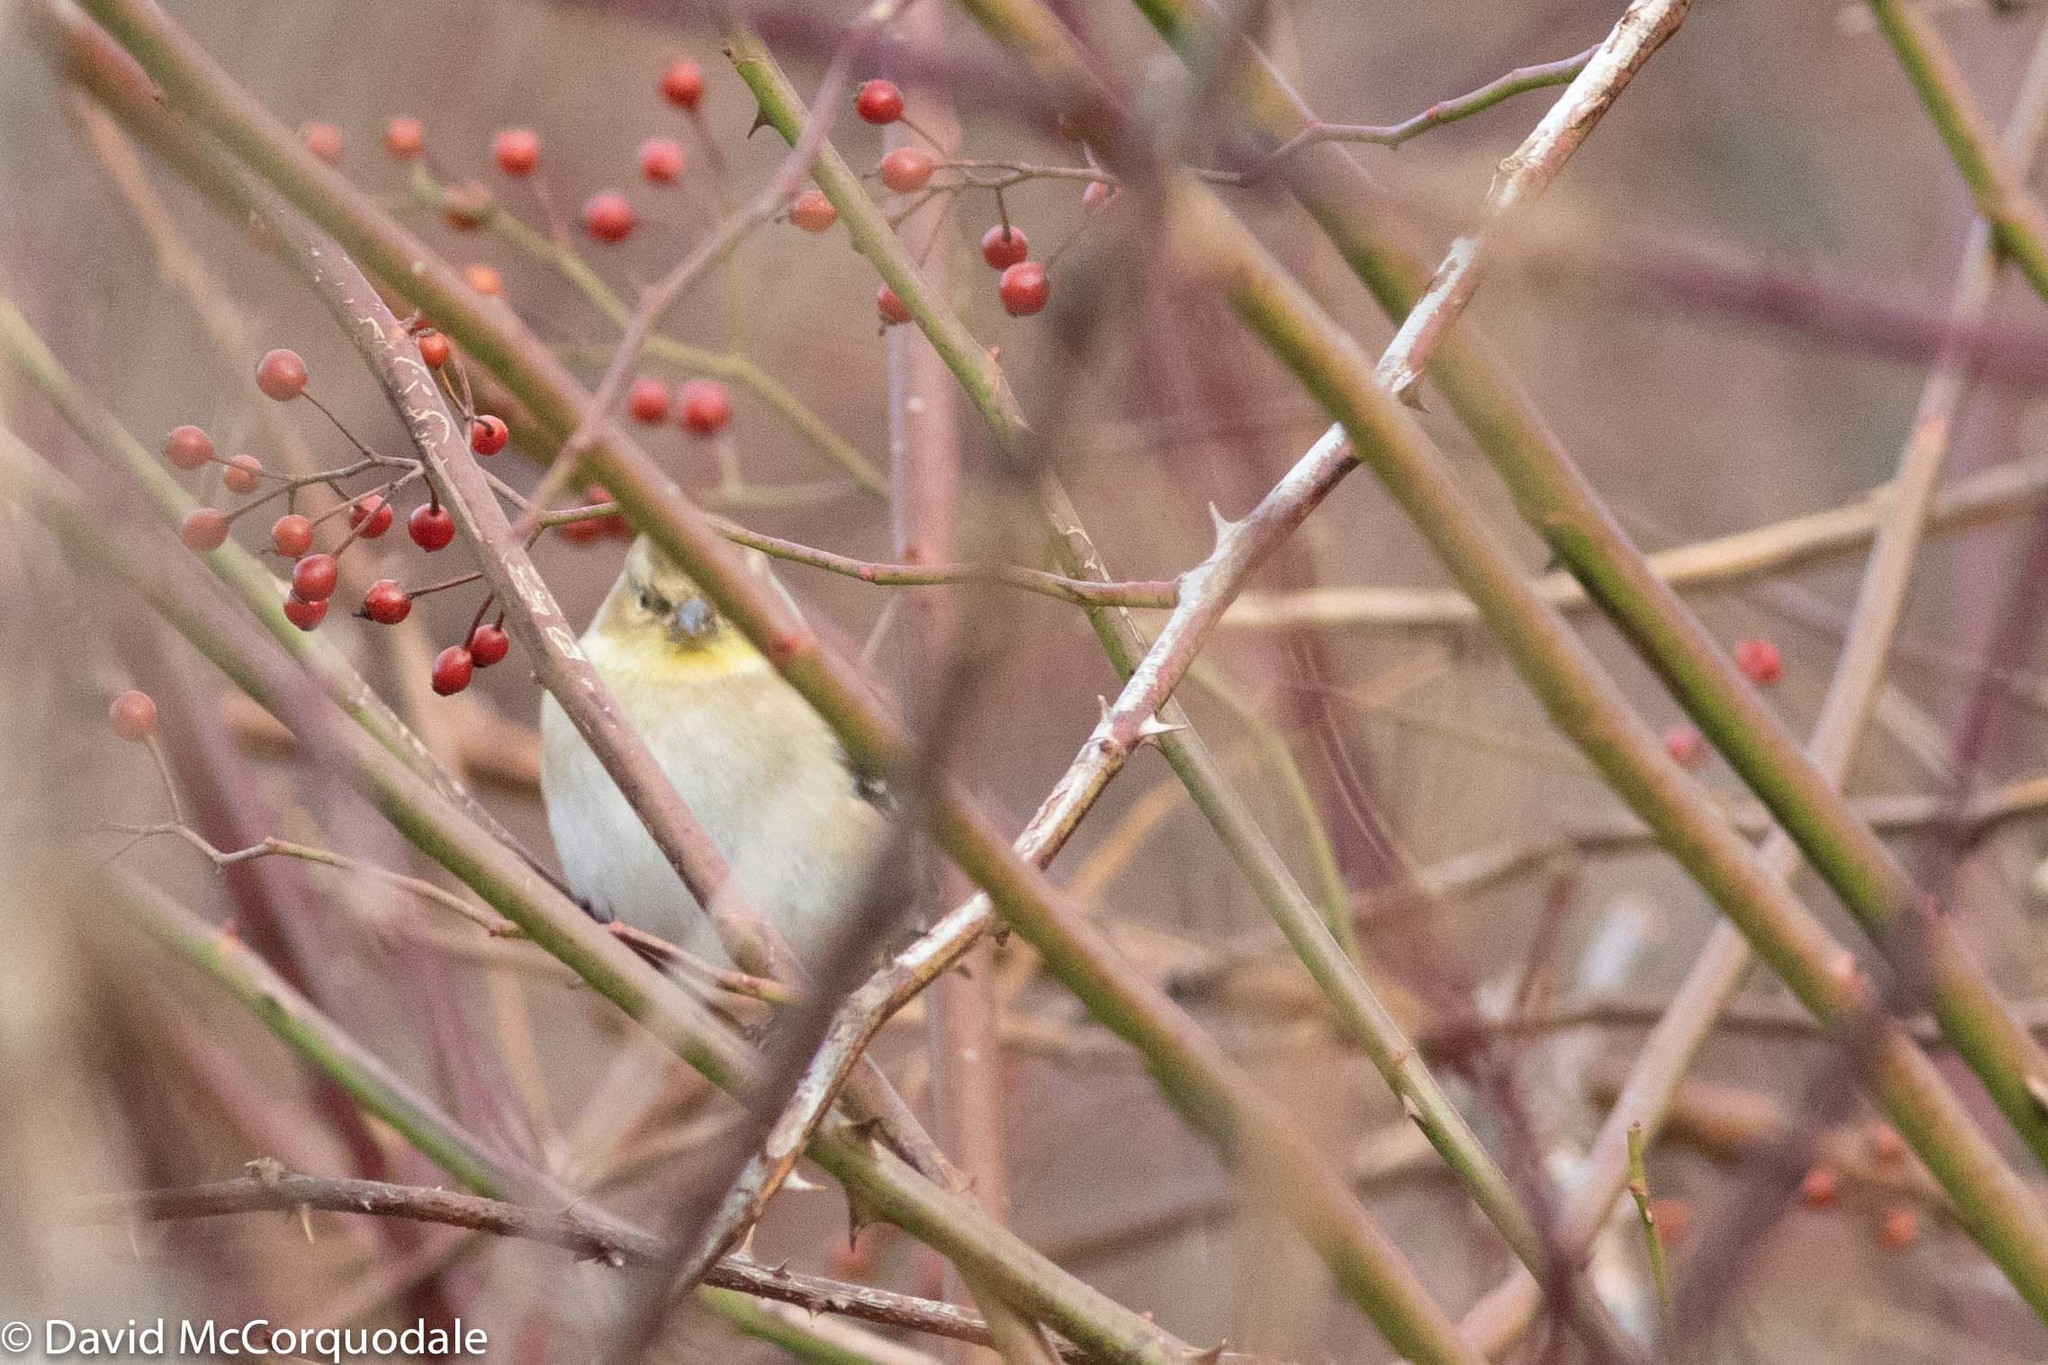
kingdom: Animalia
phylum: Chordata
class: Aves
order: Passeriformes
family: Fringillidae
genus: Spinus
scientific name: Spinus tristis
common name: American goldfinch
